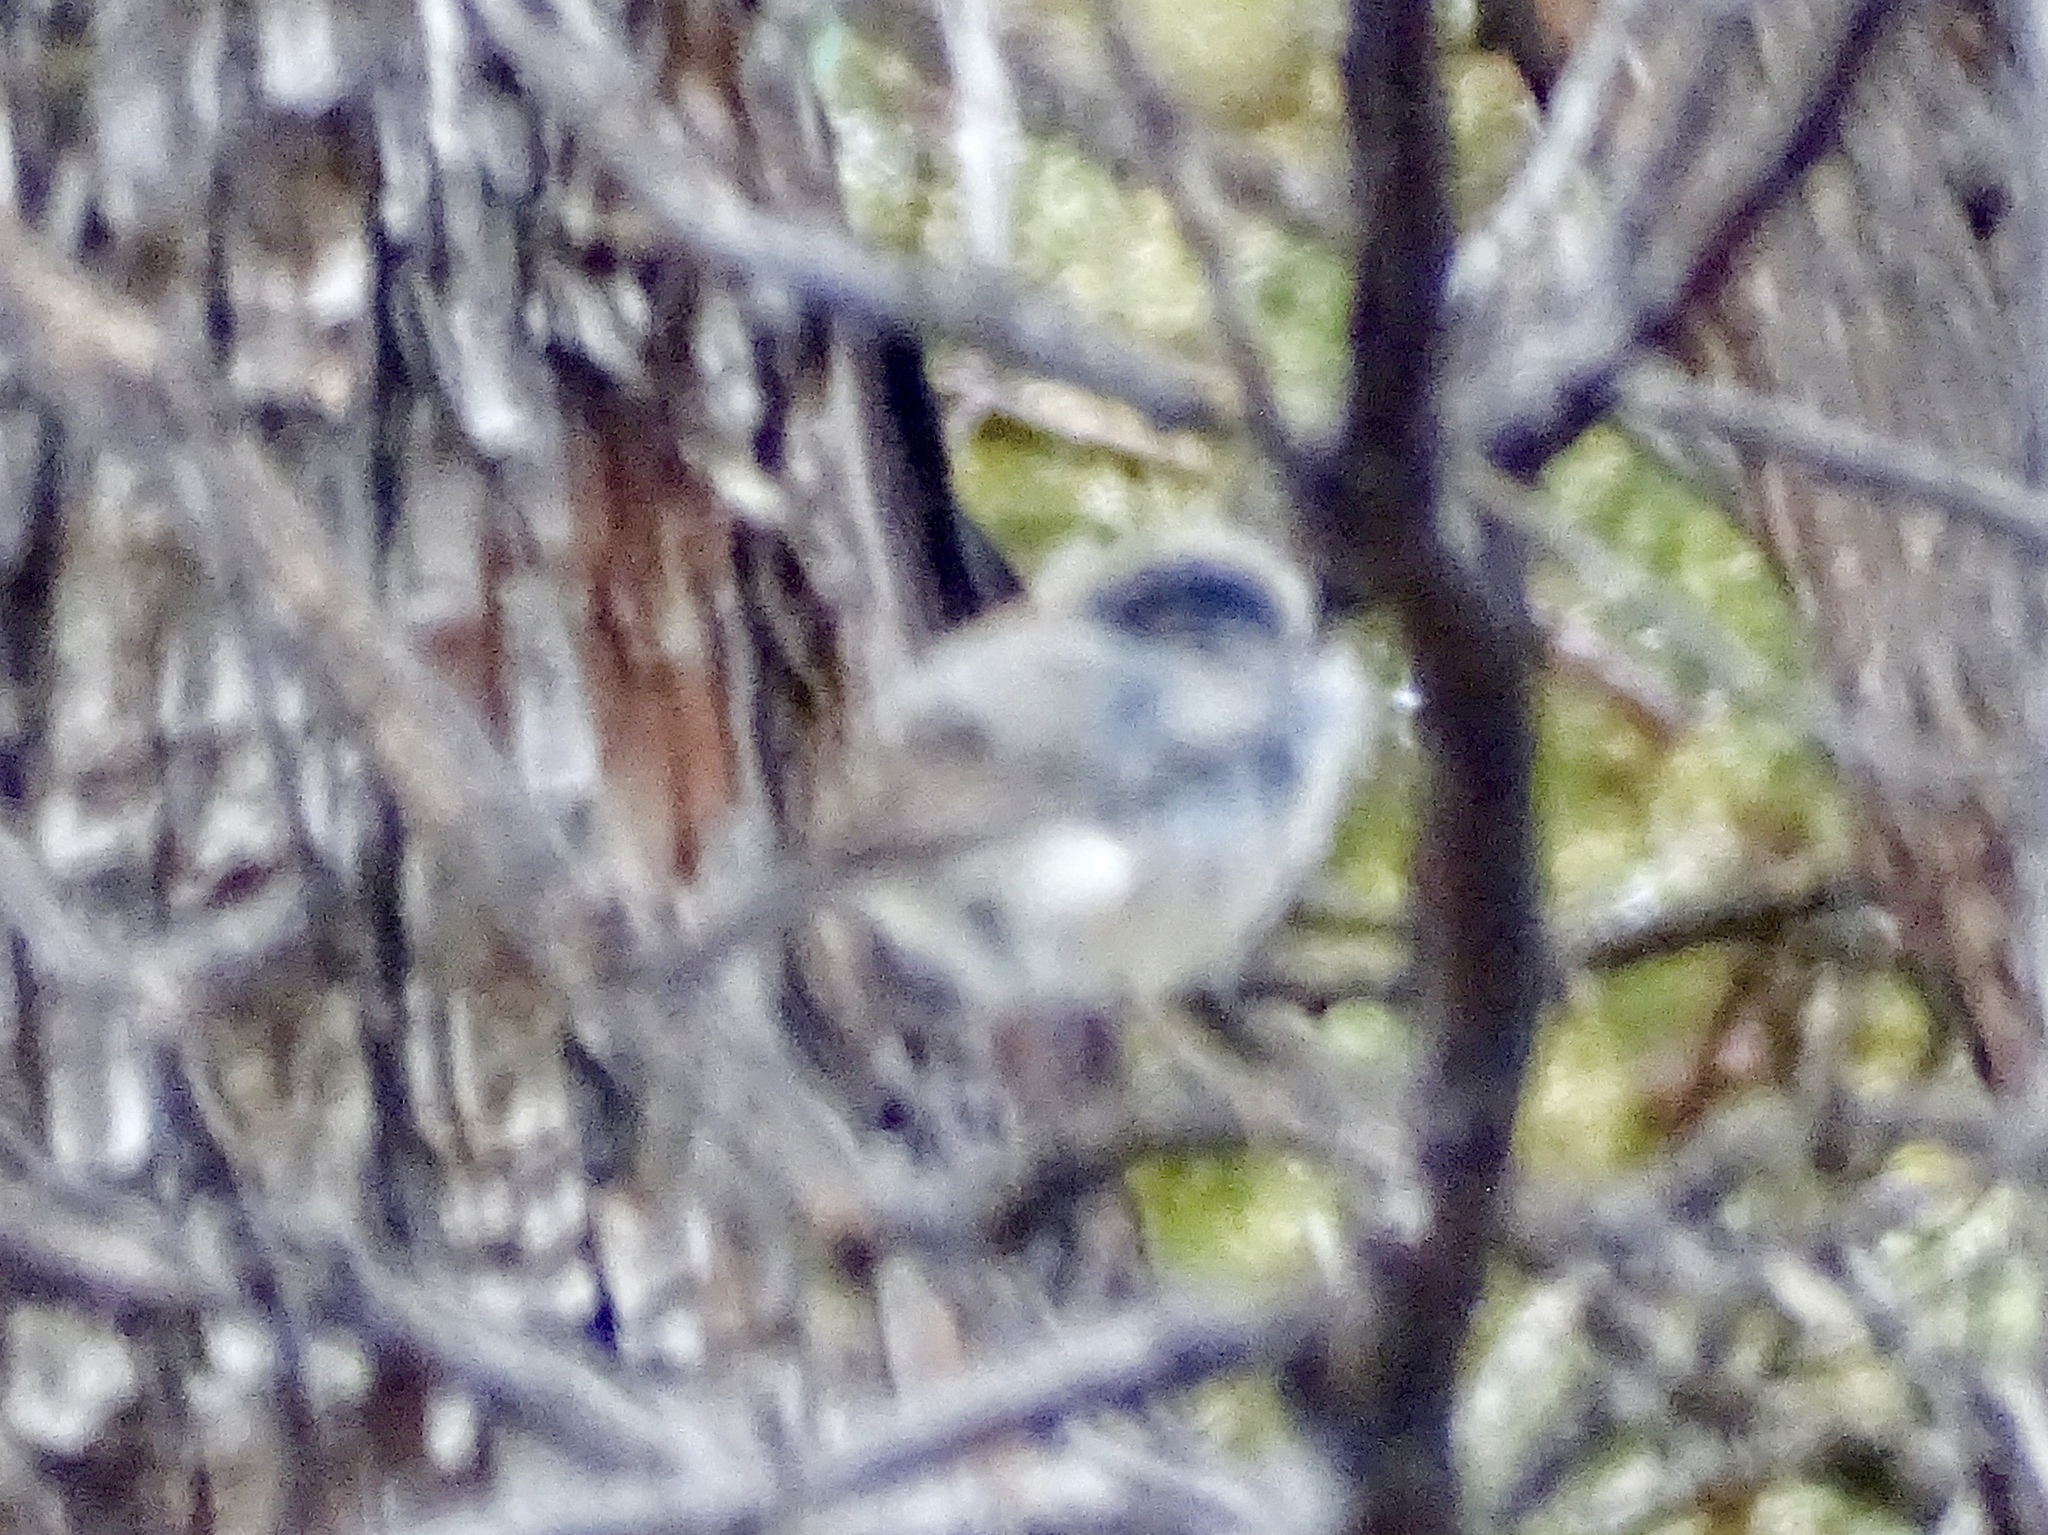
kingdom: Animalia
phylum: Chordata
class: Aves
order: Passeriformes
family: Passerellidae
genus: Junco
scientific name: Junco hyemalis
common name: Dark-eyed junco
